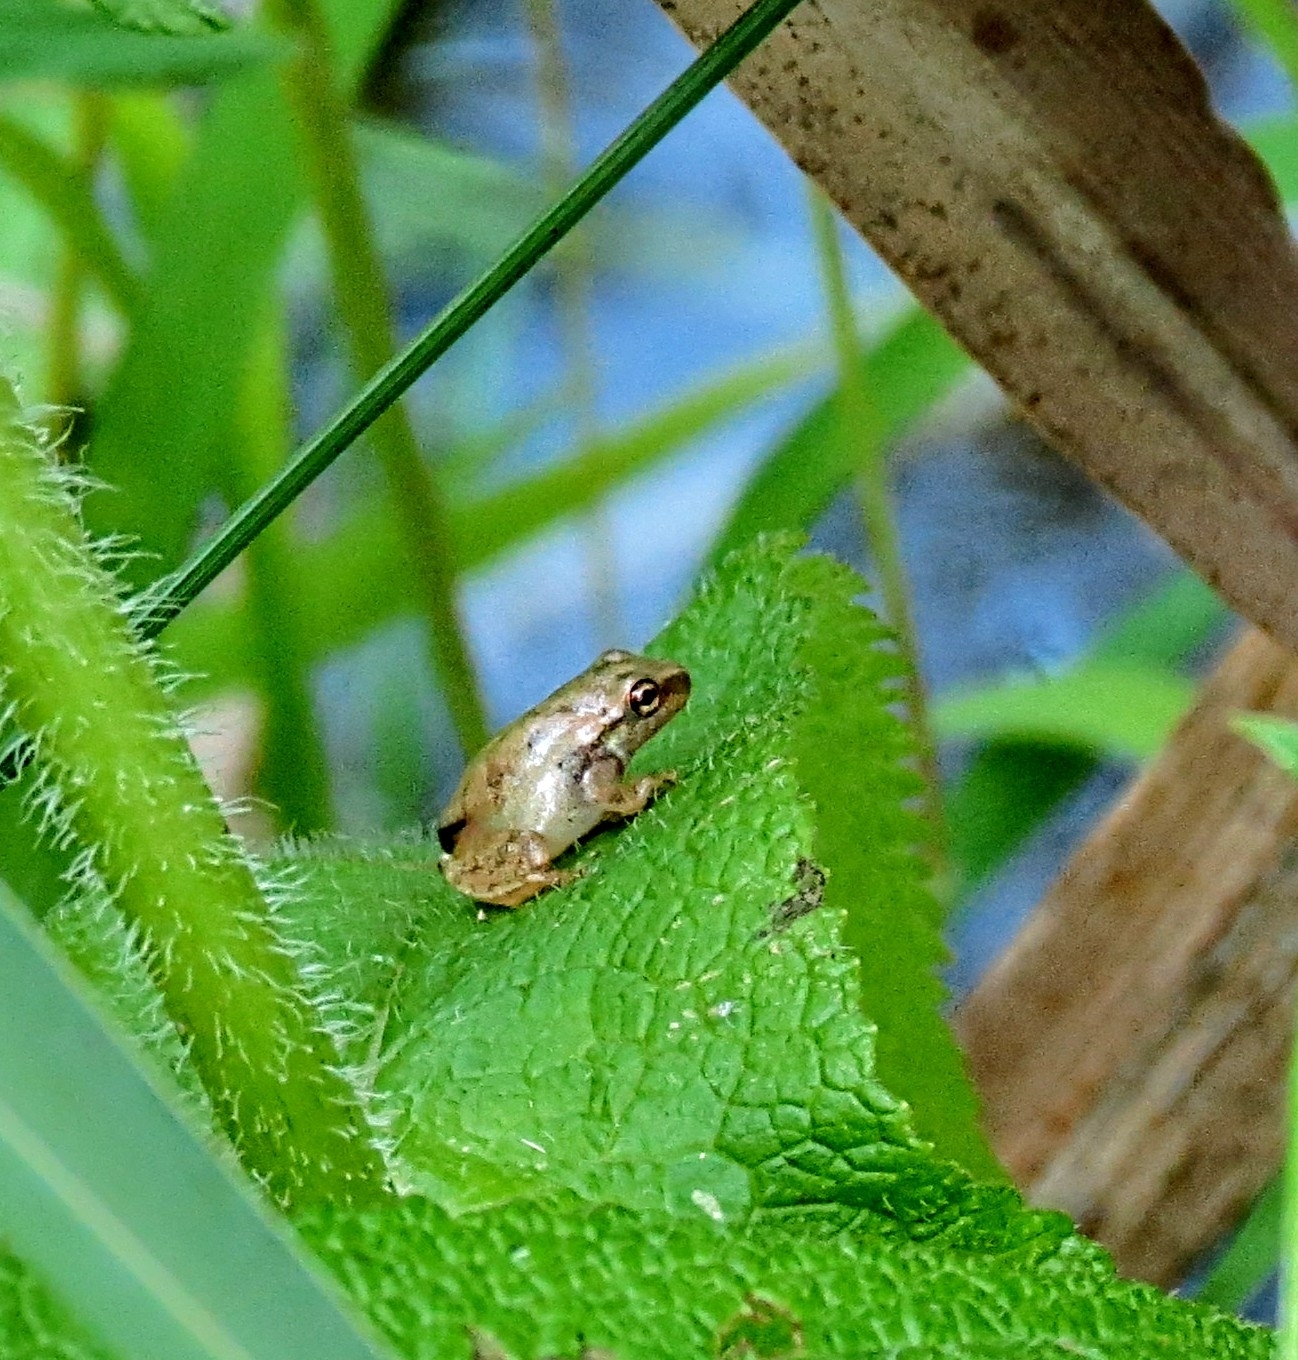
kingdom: Animalia
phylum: Chordata
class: Amphibia
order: Anura
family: Hylidae
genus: Pseudacris
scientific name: Pseudacris crucifer
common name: Spring peeper
